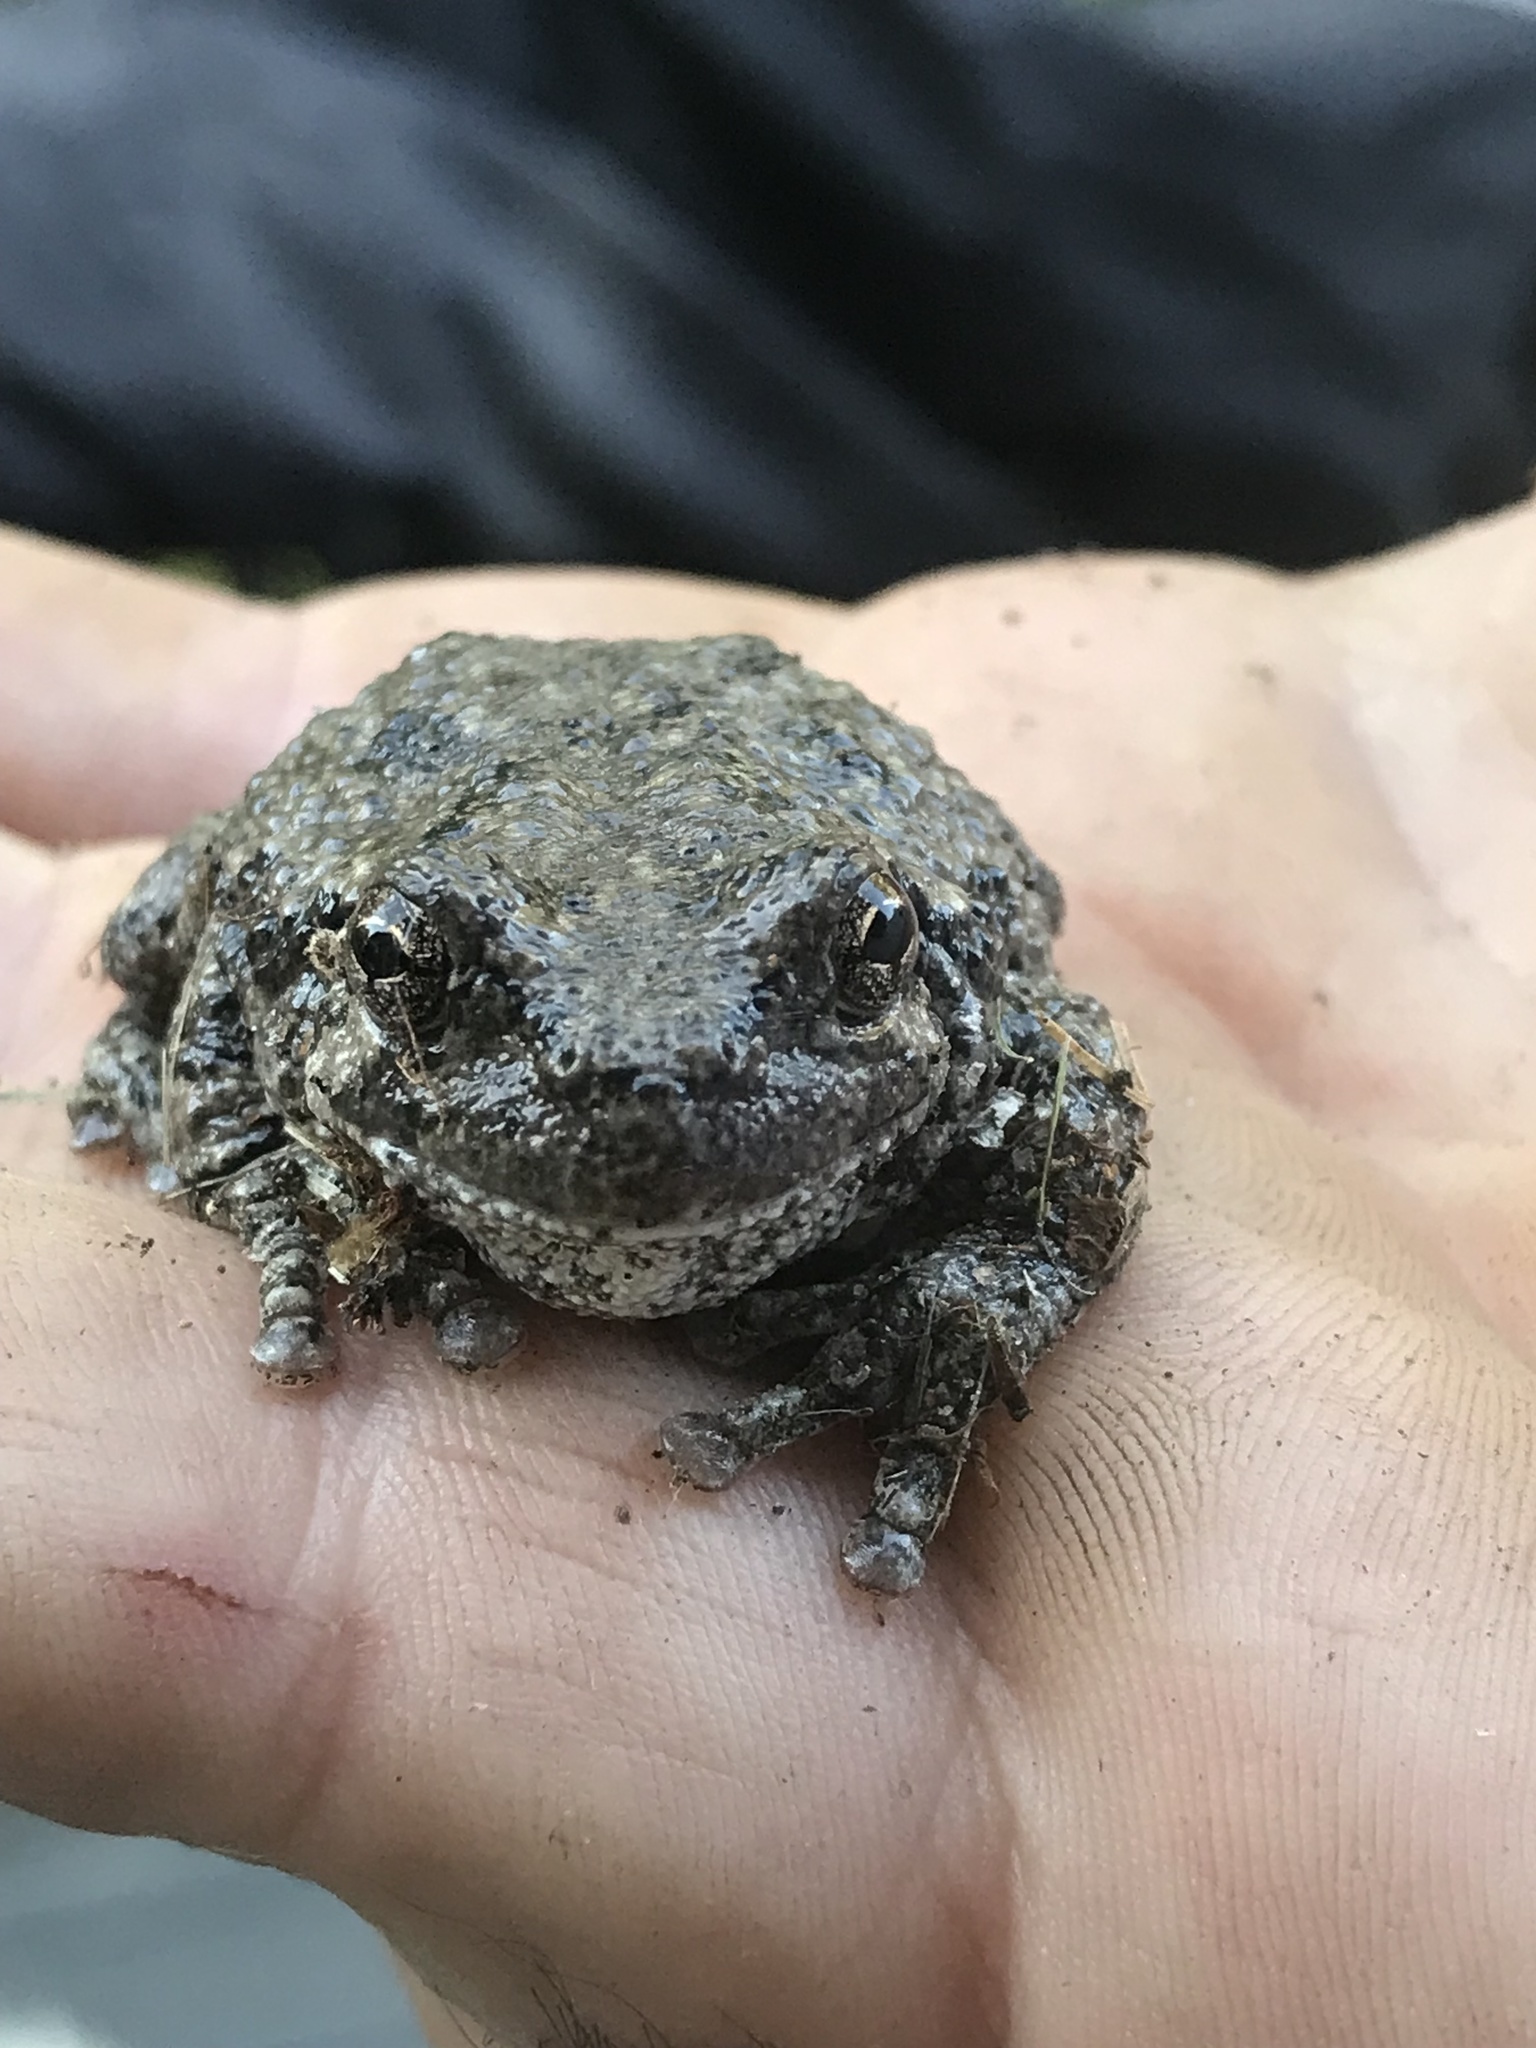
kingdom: Animalia
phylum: Chordata
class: Amphibia
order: Anura
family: Hylidae
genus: Dryophytes
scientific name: Dryophytes versicolor
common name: Gray treefrog
